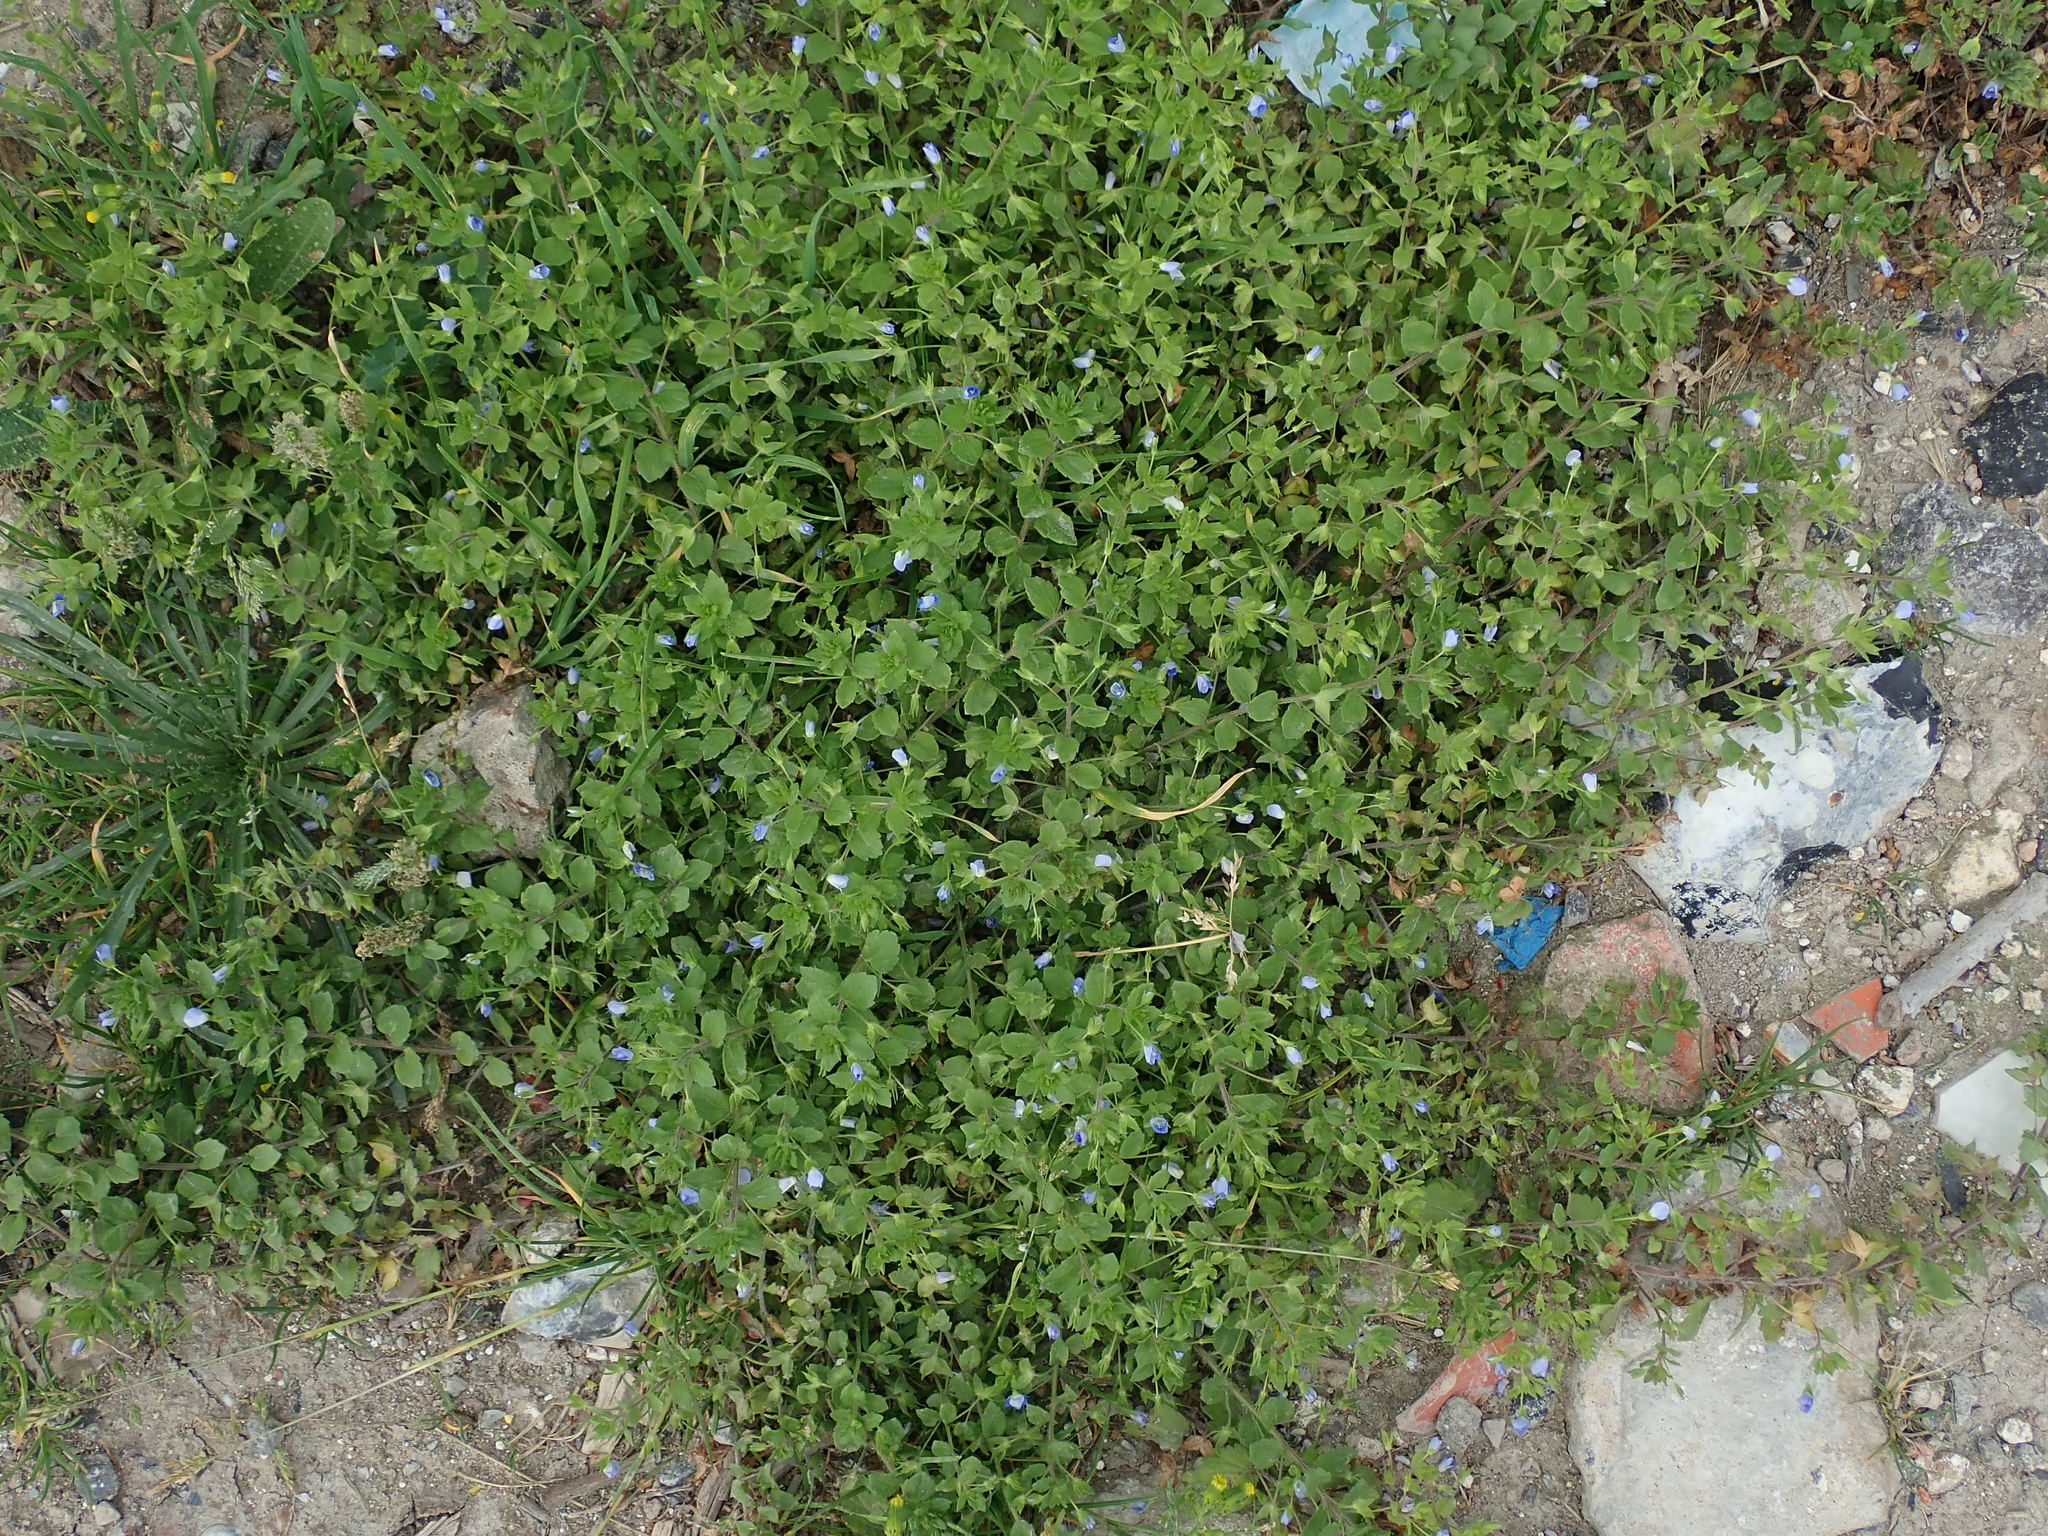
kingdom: Plantae
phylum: Tracheophyta
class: Magnoliopsida
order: Lamiales
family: Plantaginaceae
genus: Veronica
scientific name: Veronica persica
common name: Common field-speedwell
